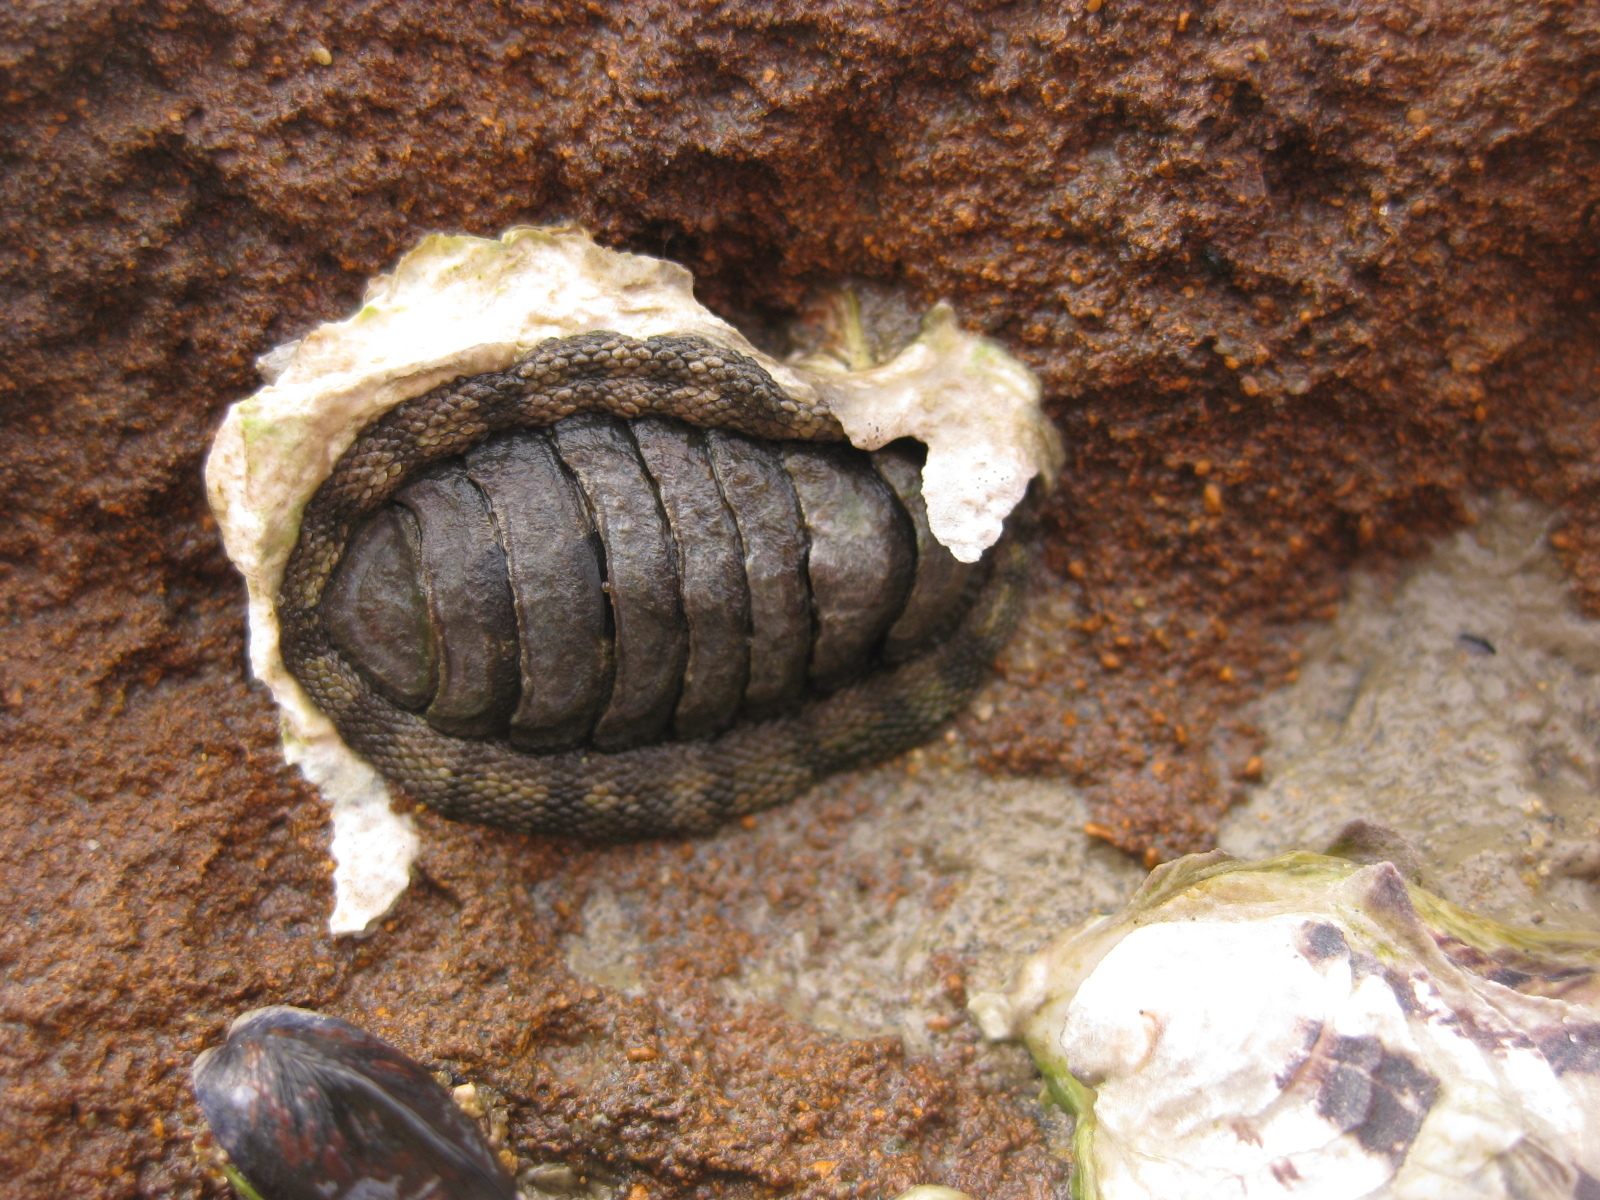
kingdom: Animalia
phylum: Mollusca
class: Polyplacophora
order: Chitonida
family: Chitonidae
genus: Sypharochiton
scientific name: Sypharochiton pelliserpentis
